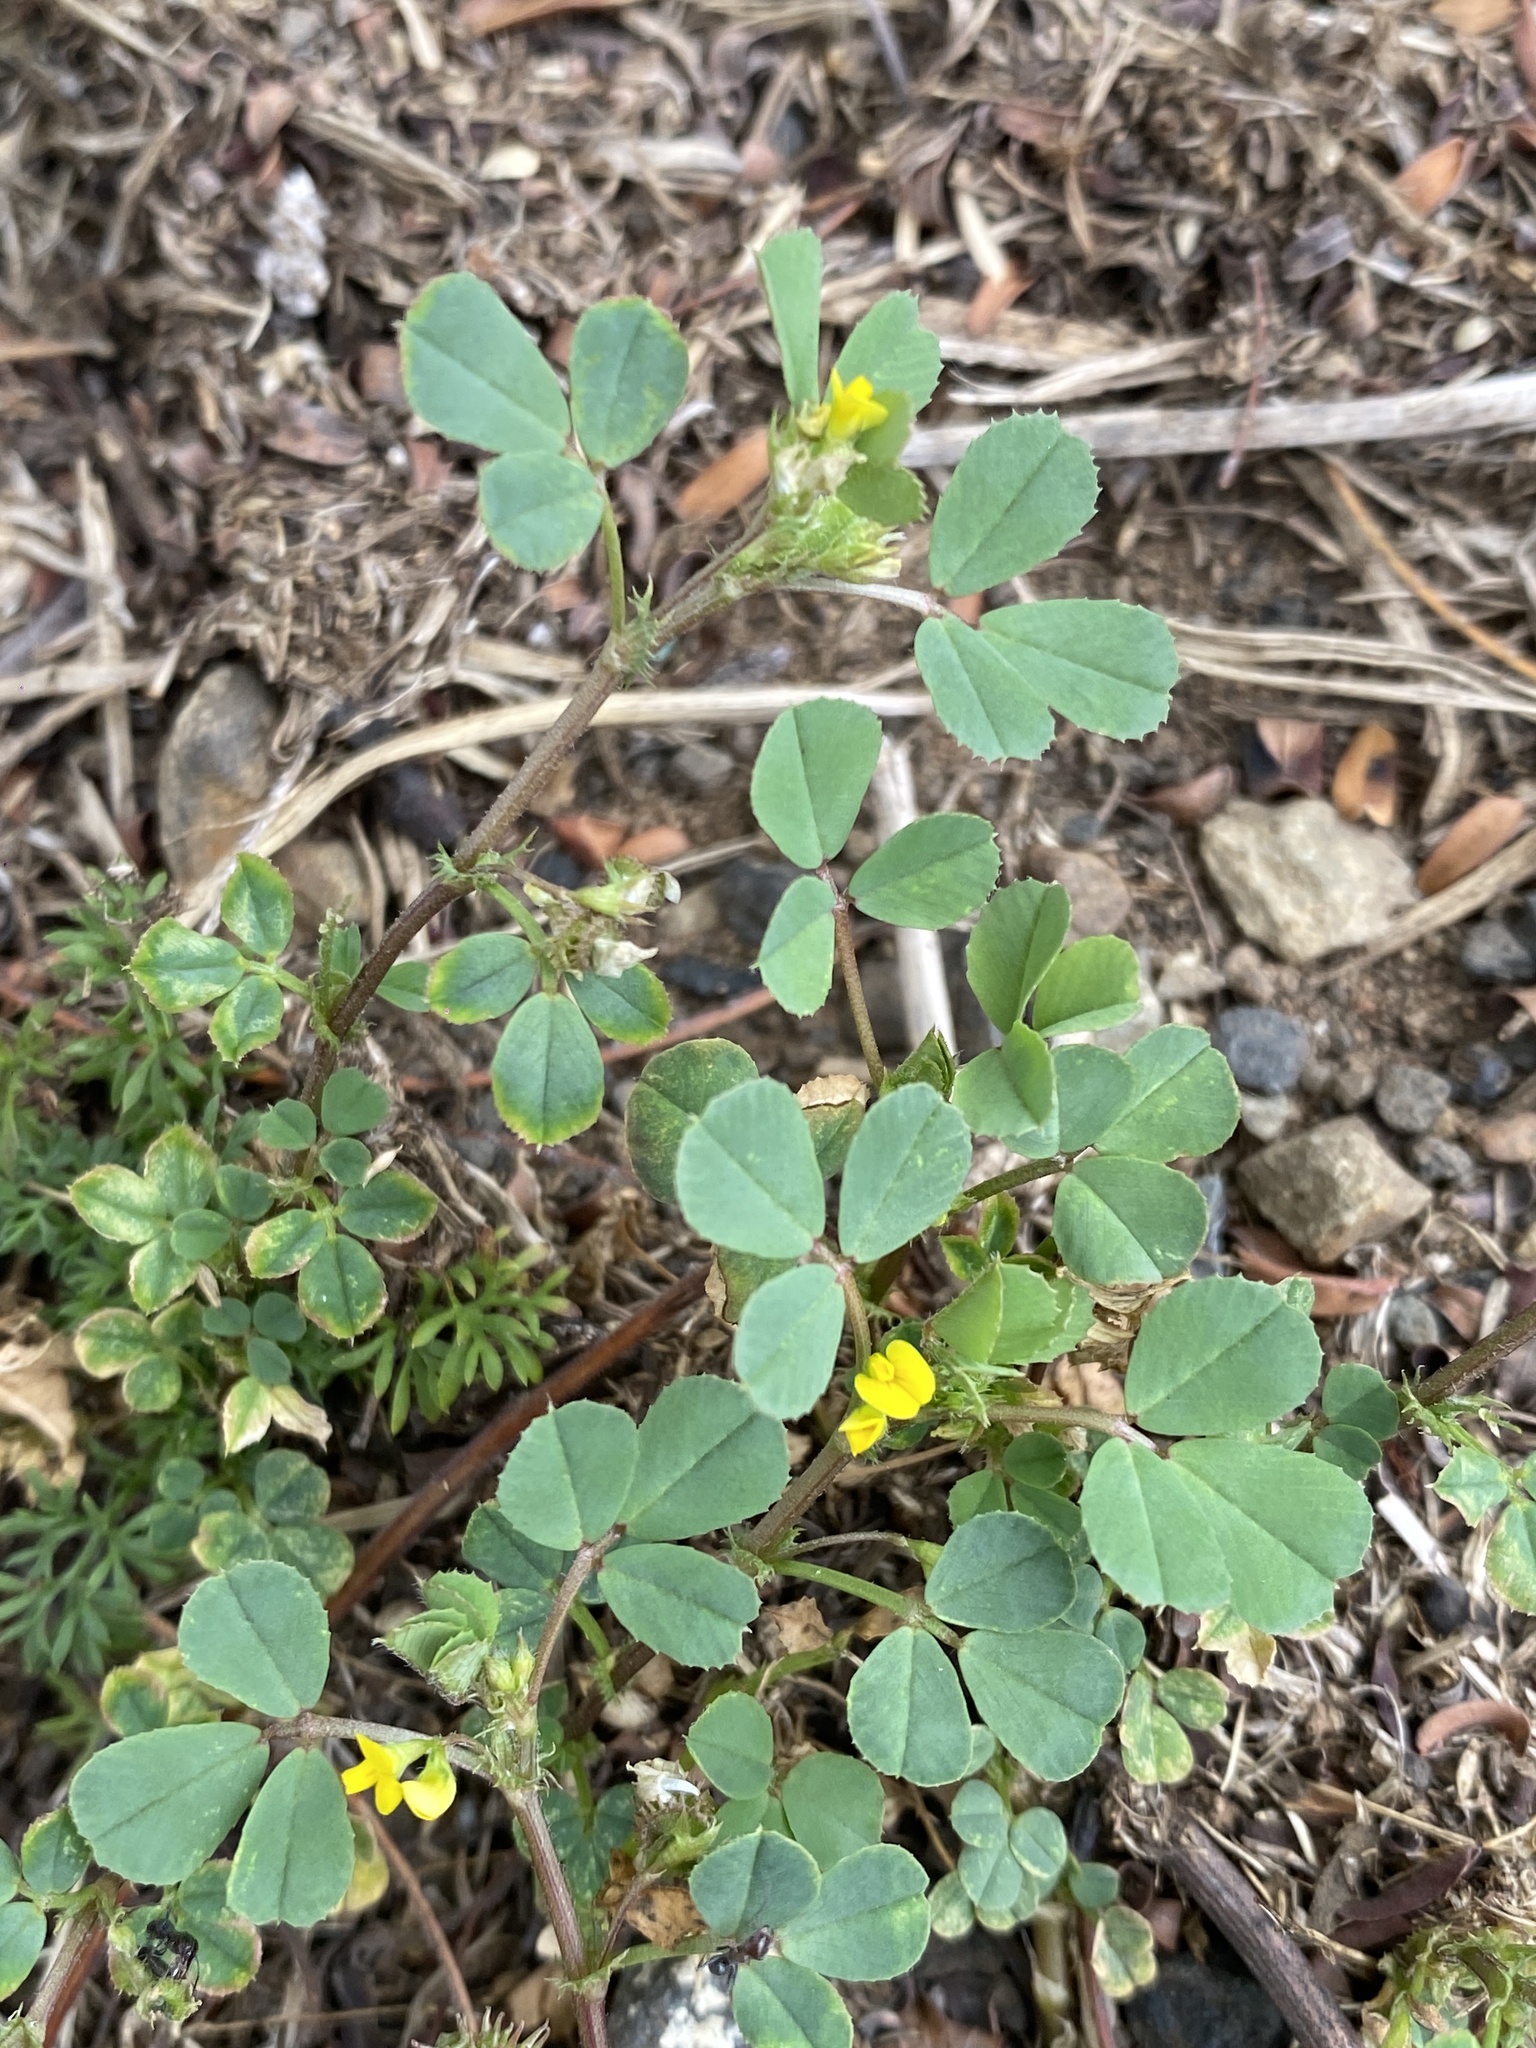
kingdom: Plantae
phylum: Tracheophyta
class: Magnoliopsida
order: Fabales
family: Fabaceae
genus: Medicago
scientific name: Medicago polymorpha
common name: Burclover
